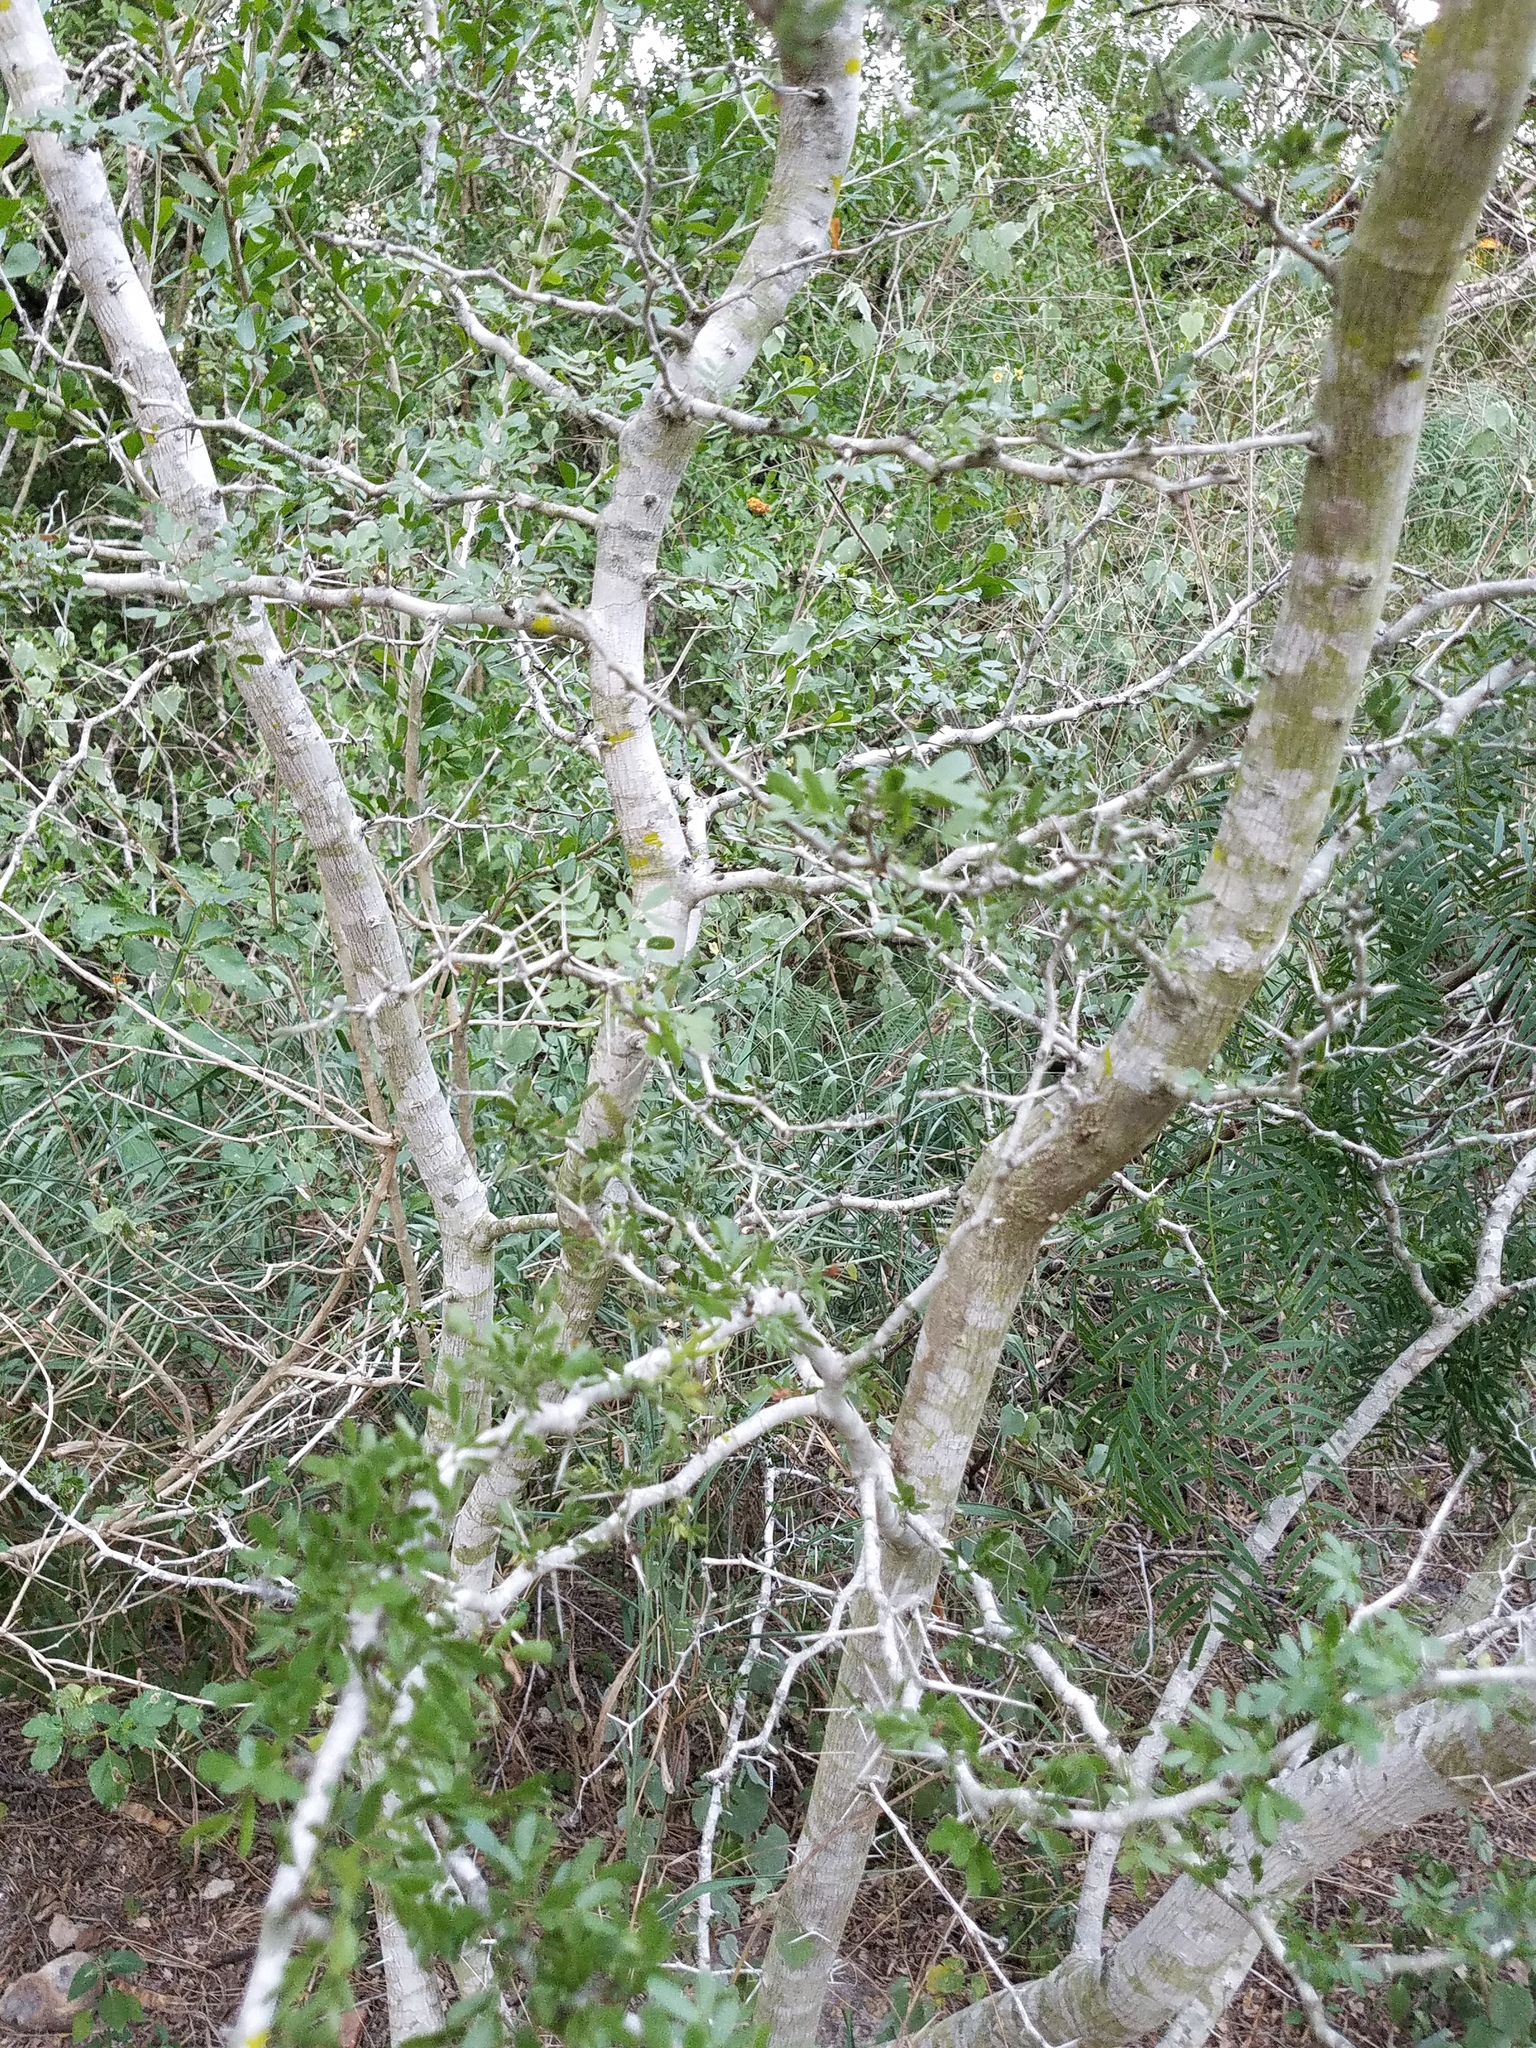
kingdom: Plantae
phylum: Tracheophyta
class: Magnoliopsida
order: Fabales
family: Fabaceae
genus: Vachellia
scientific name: Vachellia rigidula
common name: Blackbrush
